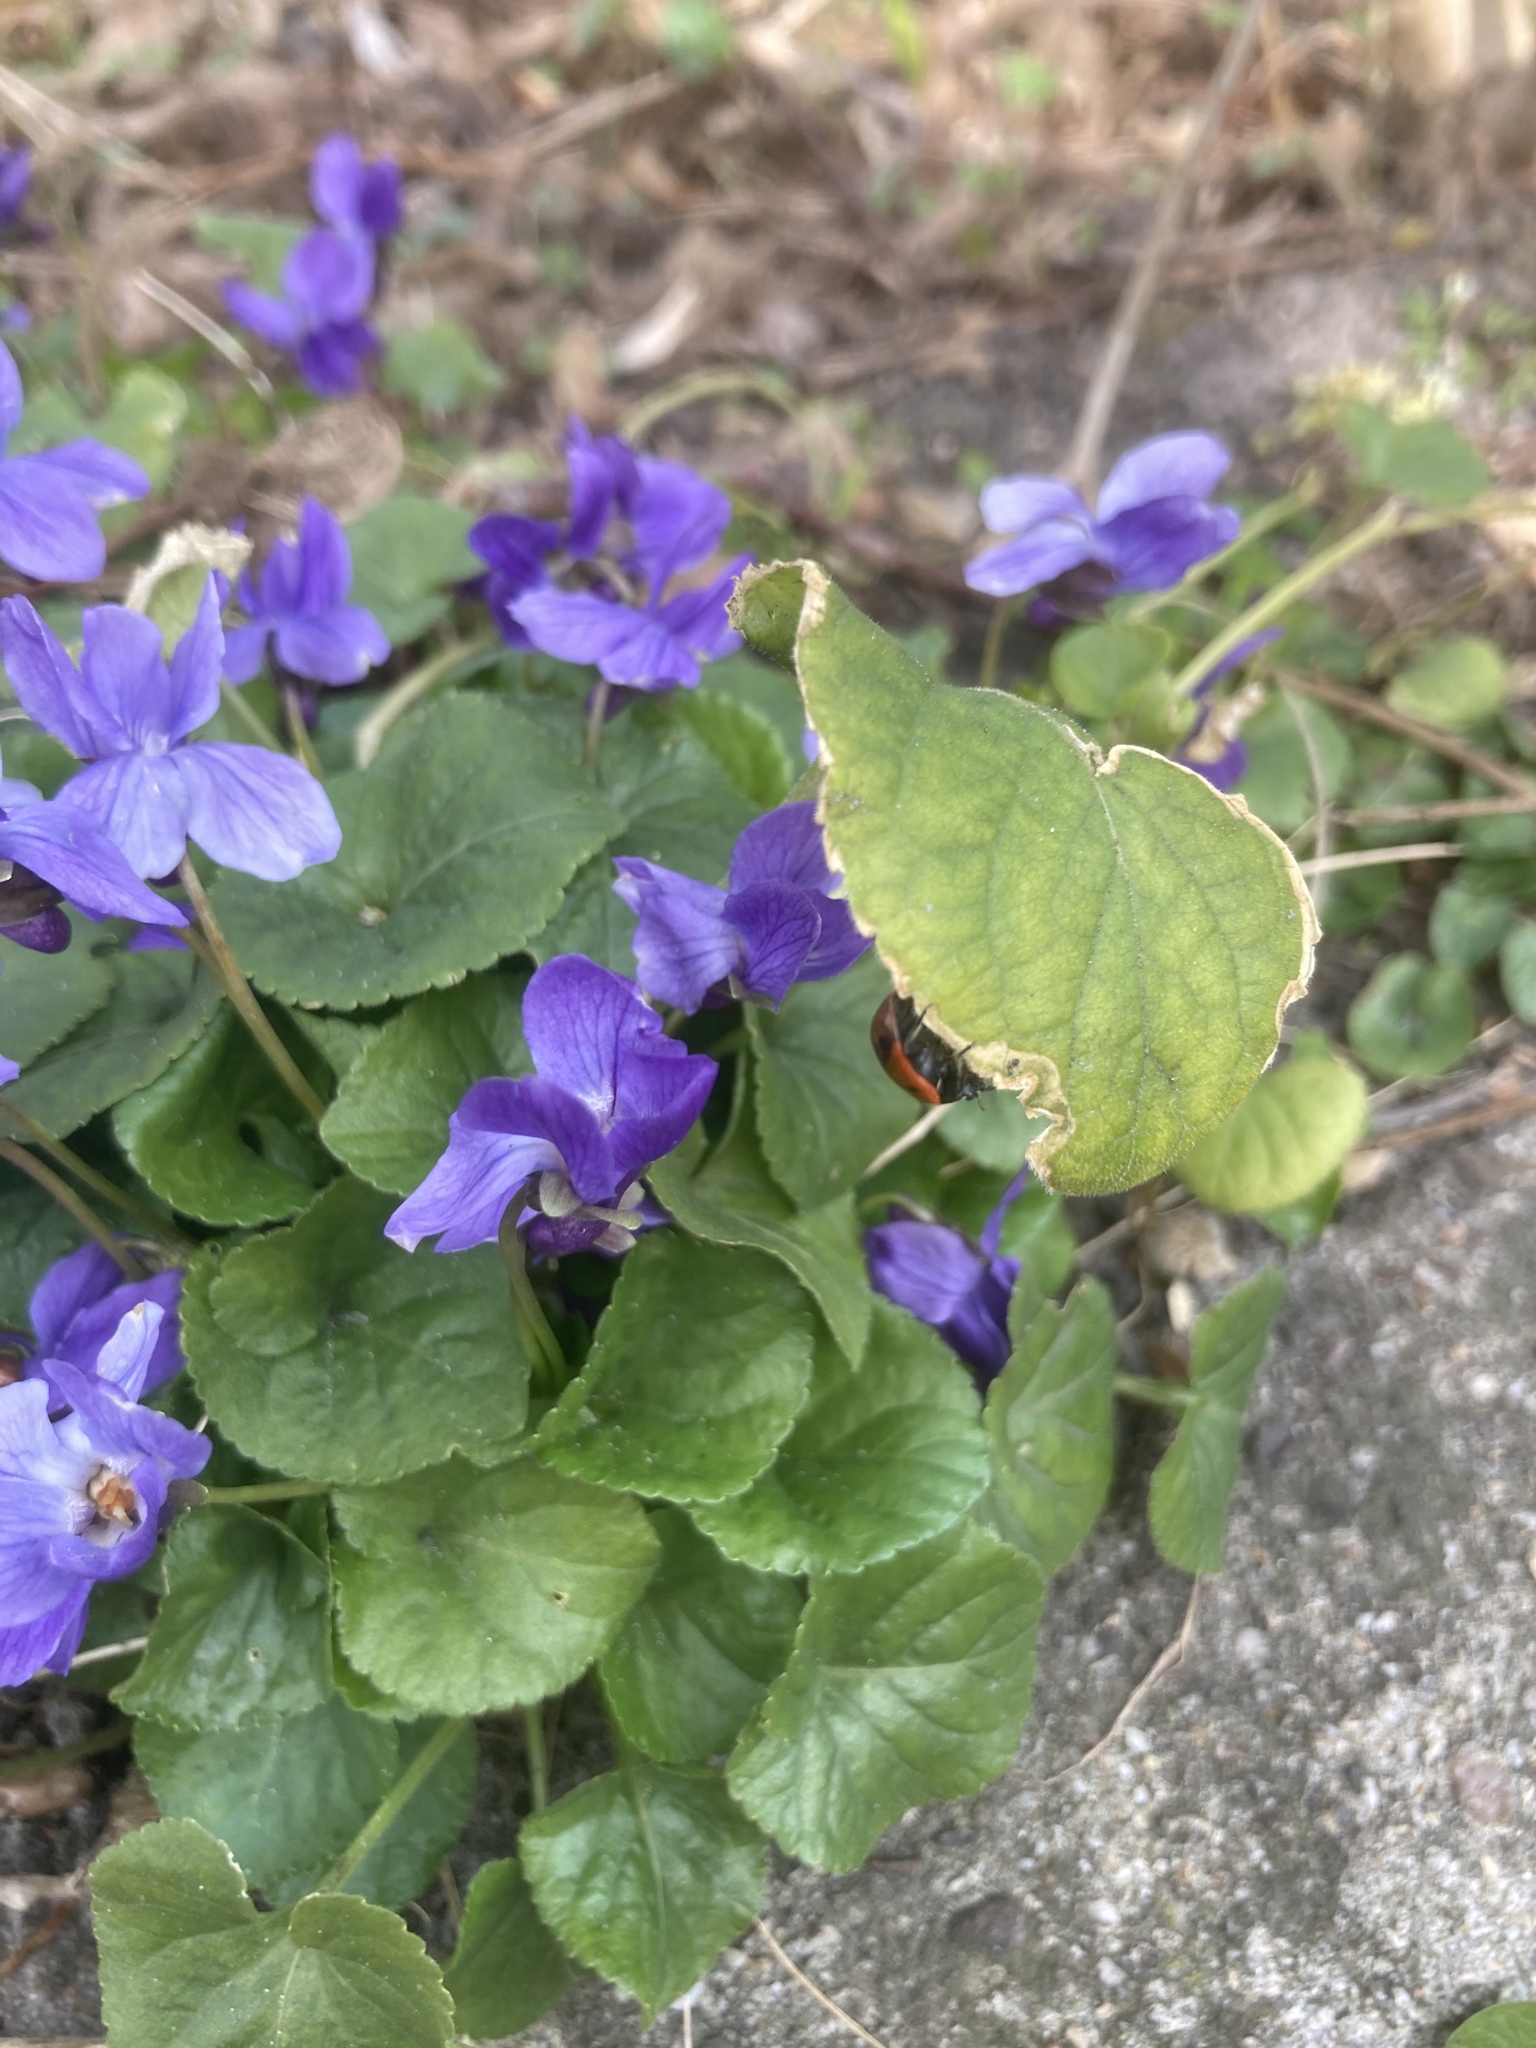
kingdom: Plantae
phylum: Tracheophyta
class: Magnoliopsida
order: Malpighiales
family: Violaceae
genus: Viola
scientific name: Viola odorata
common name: Sweet violet
